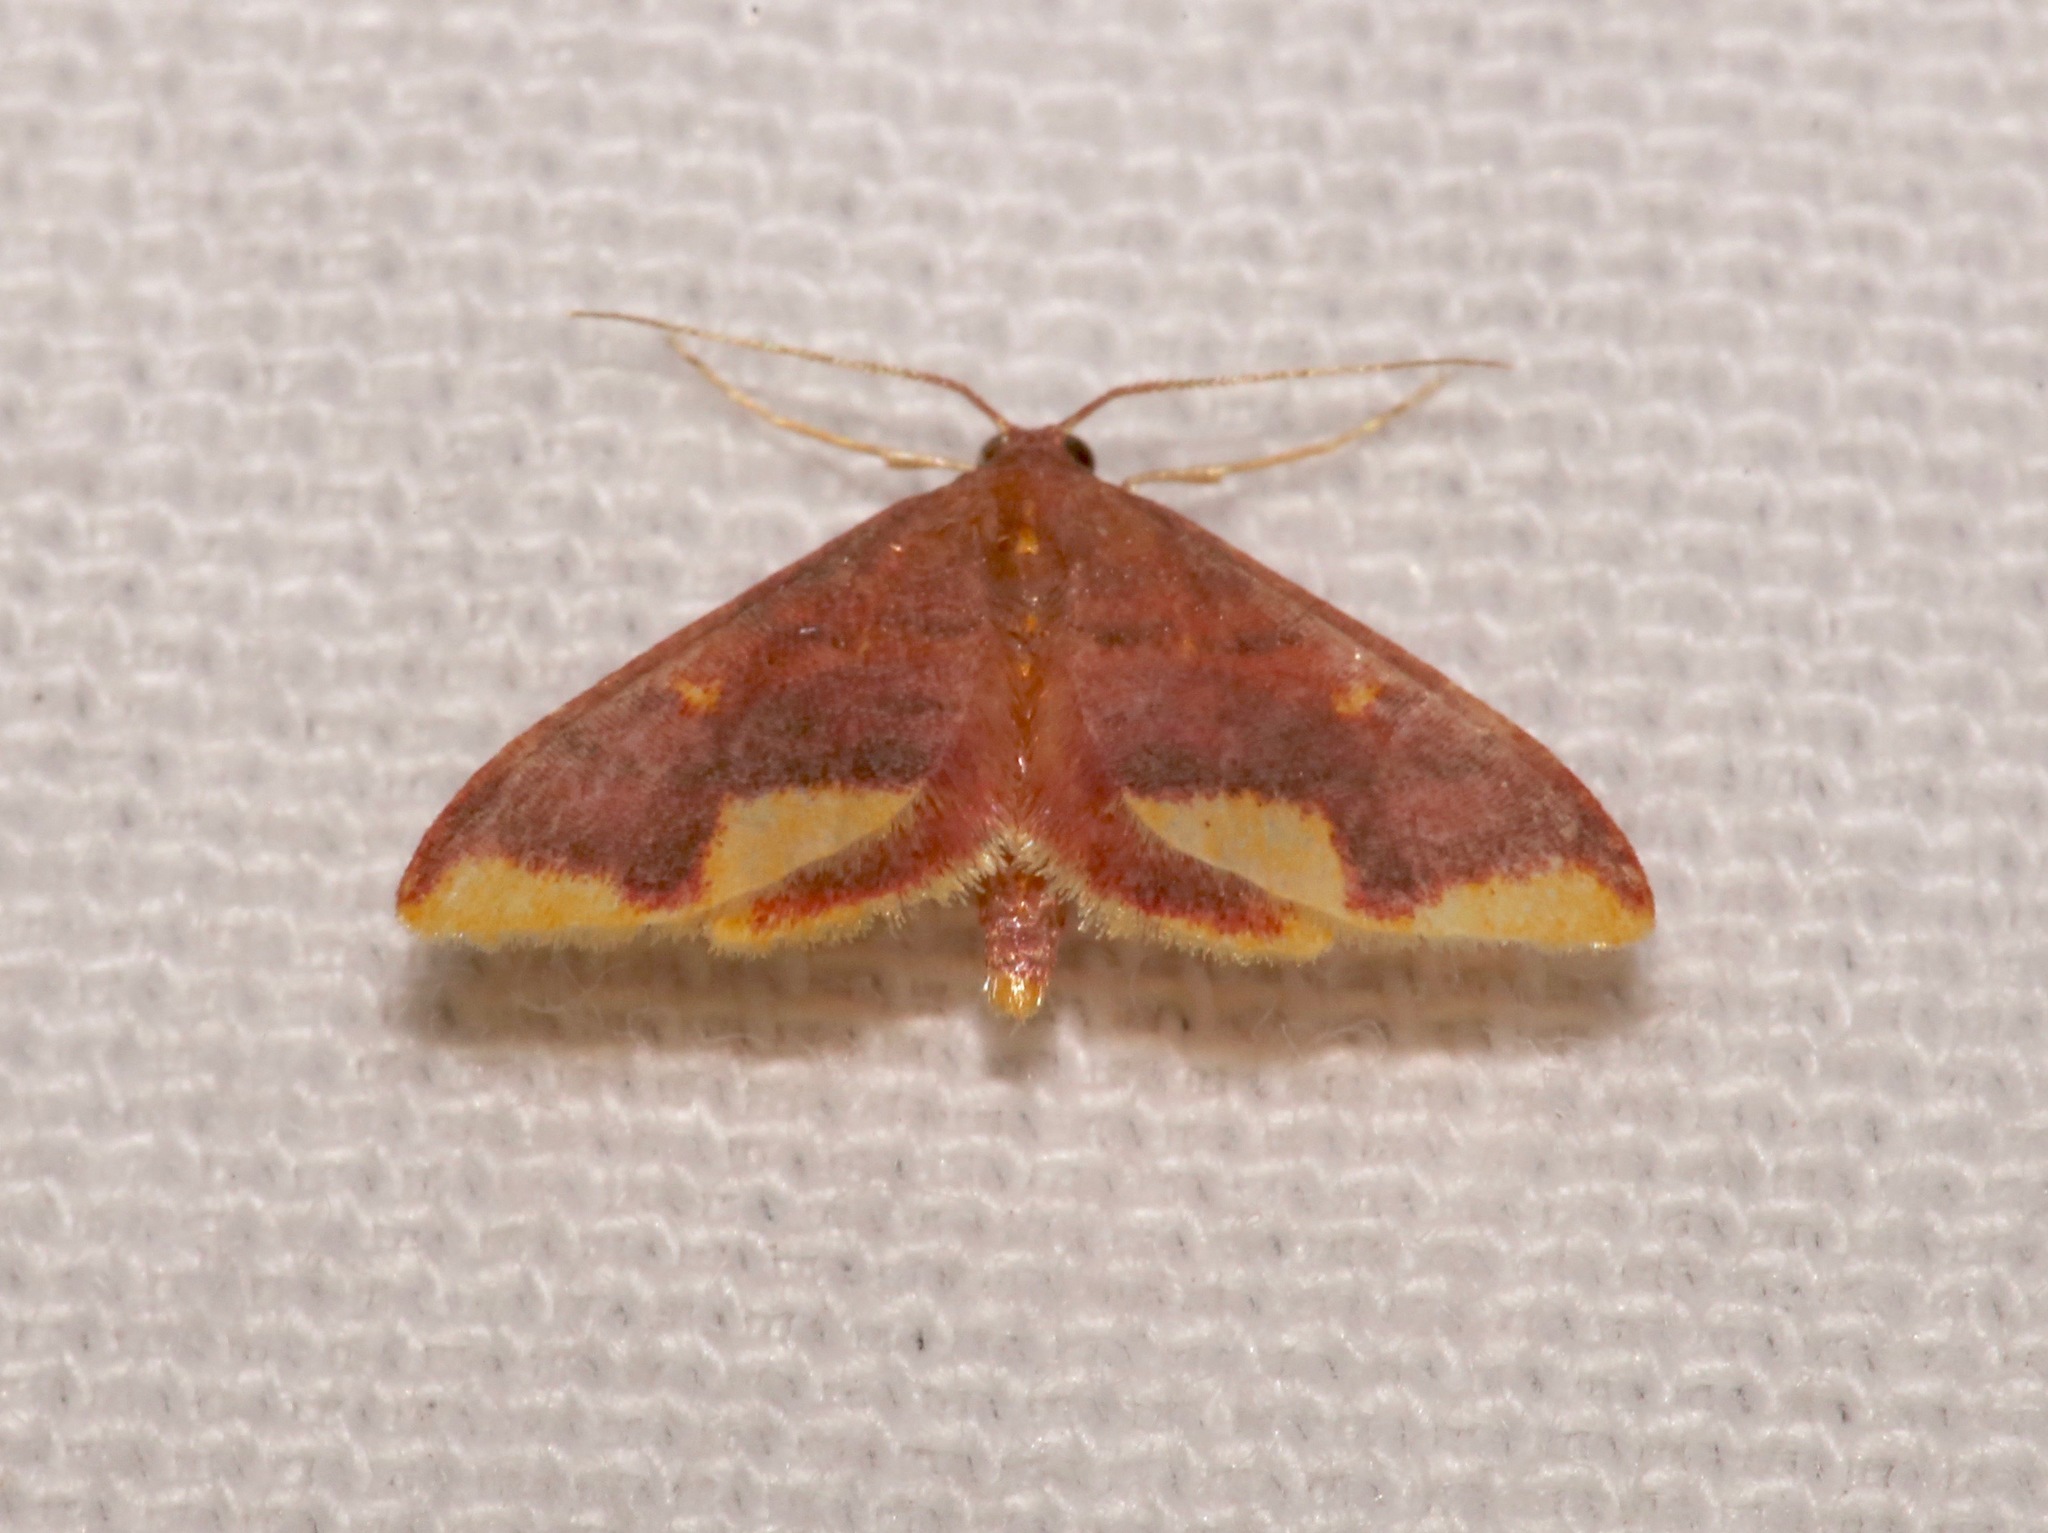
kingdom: Animalia
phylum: Arthropoda
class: Insecta
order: Lepidoptera
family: Geometridae
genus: Lophosis
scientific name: Lophosis labeculata
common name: Stained lophosis moth
